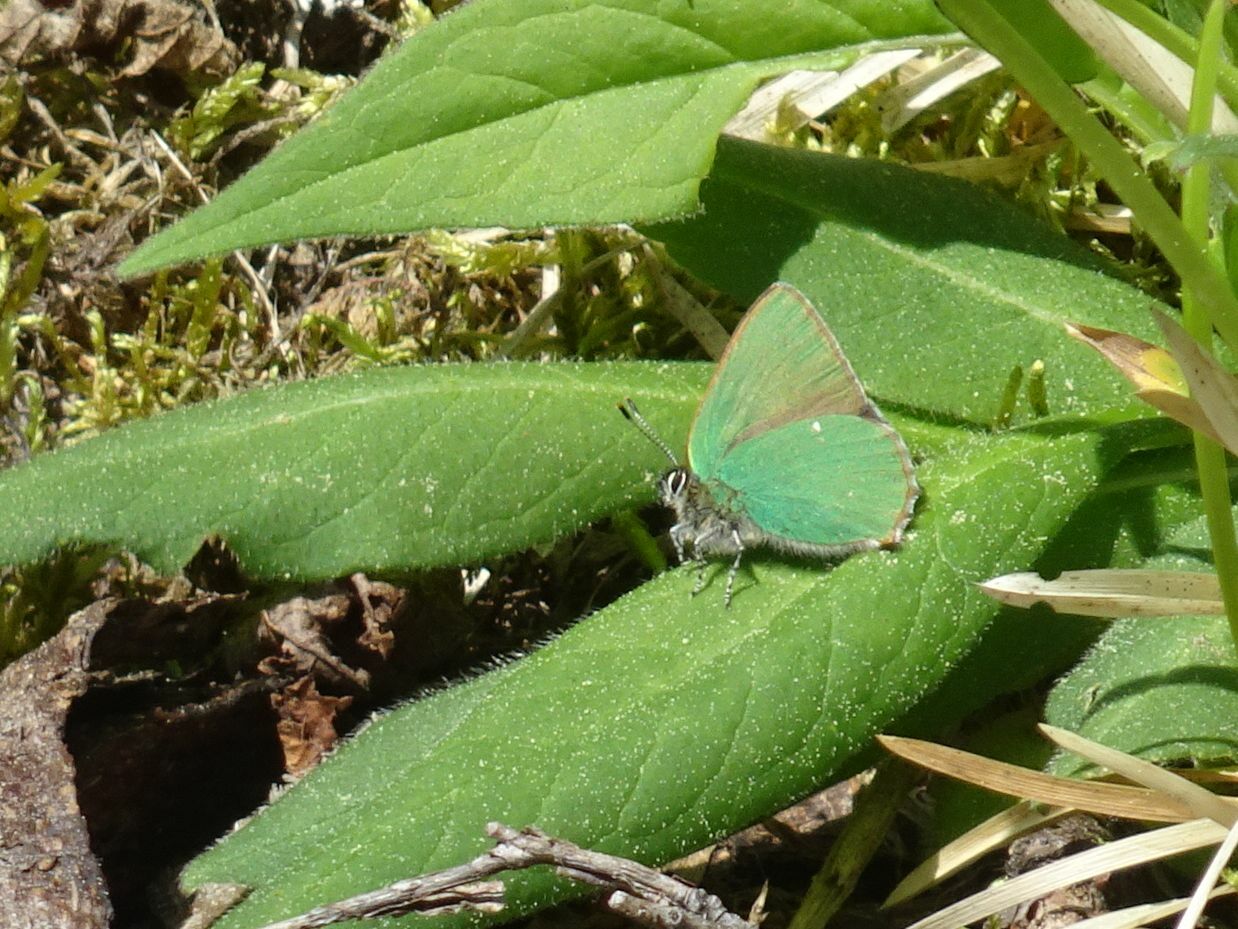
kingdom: Animalia
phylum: Arthropoda
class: Insecta
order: Lepidoptera
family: Lycaenidae
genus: Callophrys
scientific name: Callophrys rubi
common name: Green hairstreak
